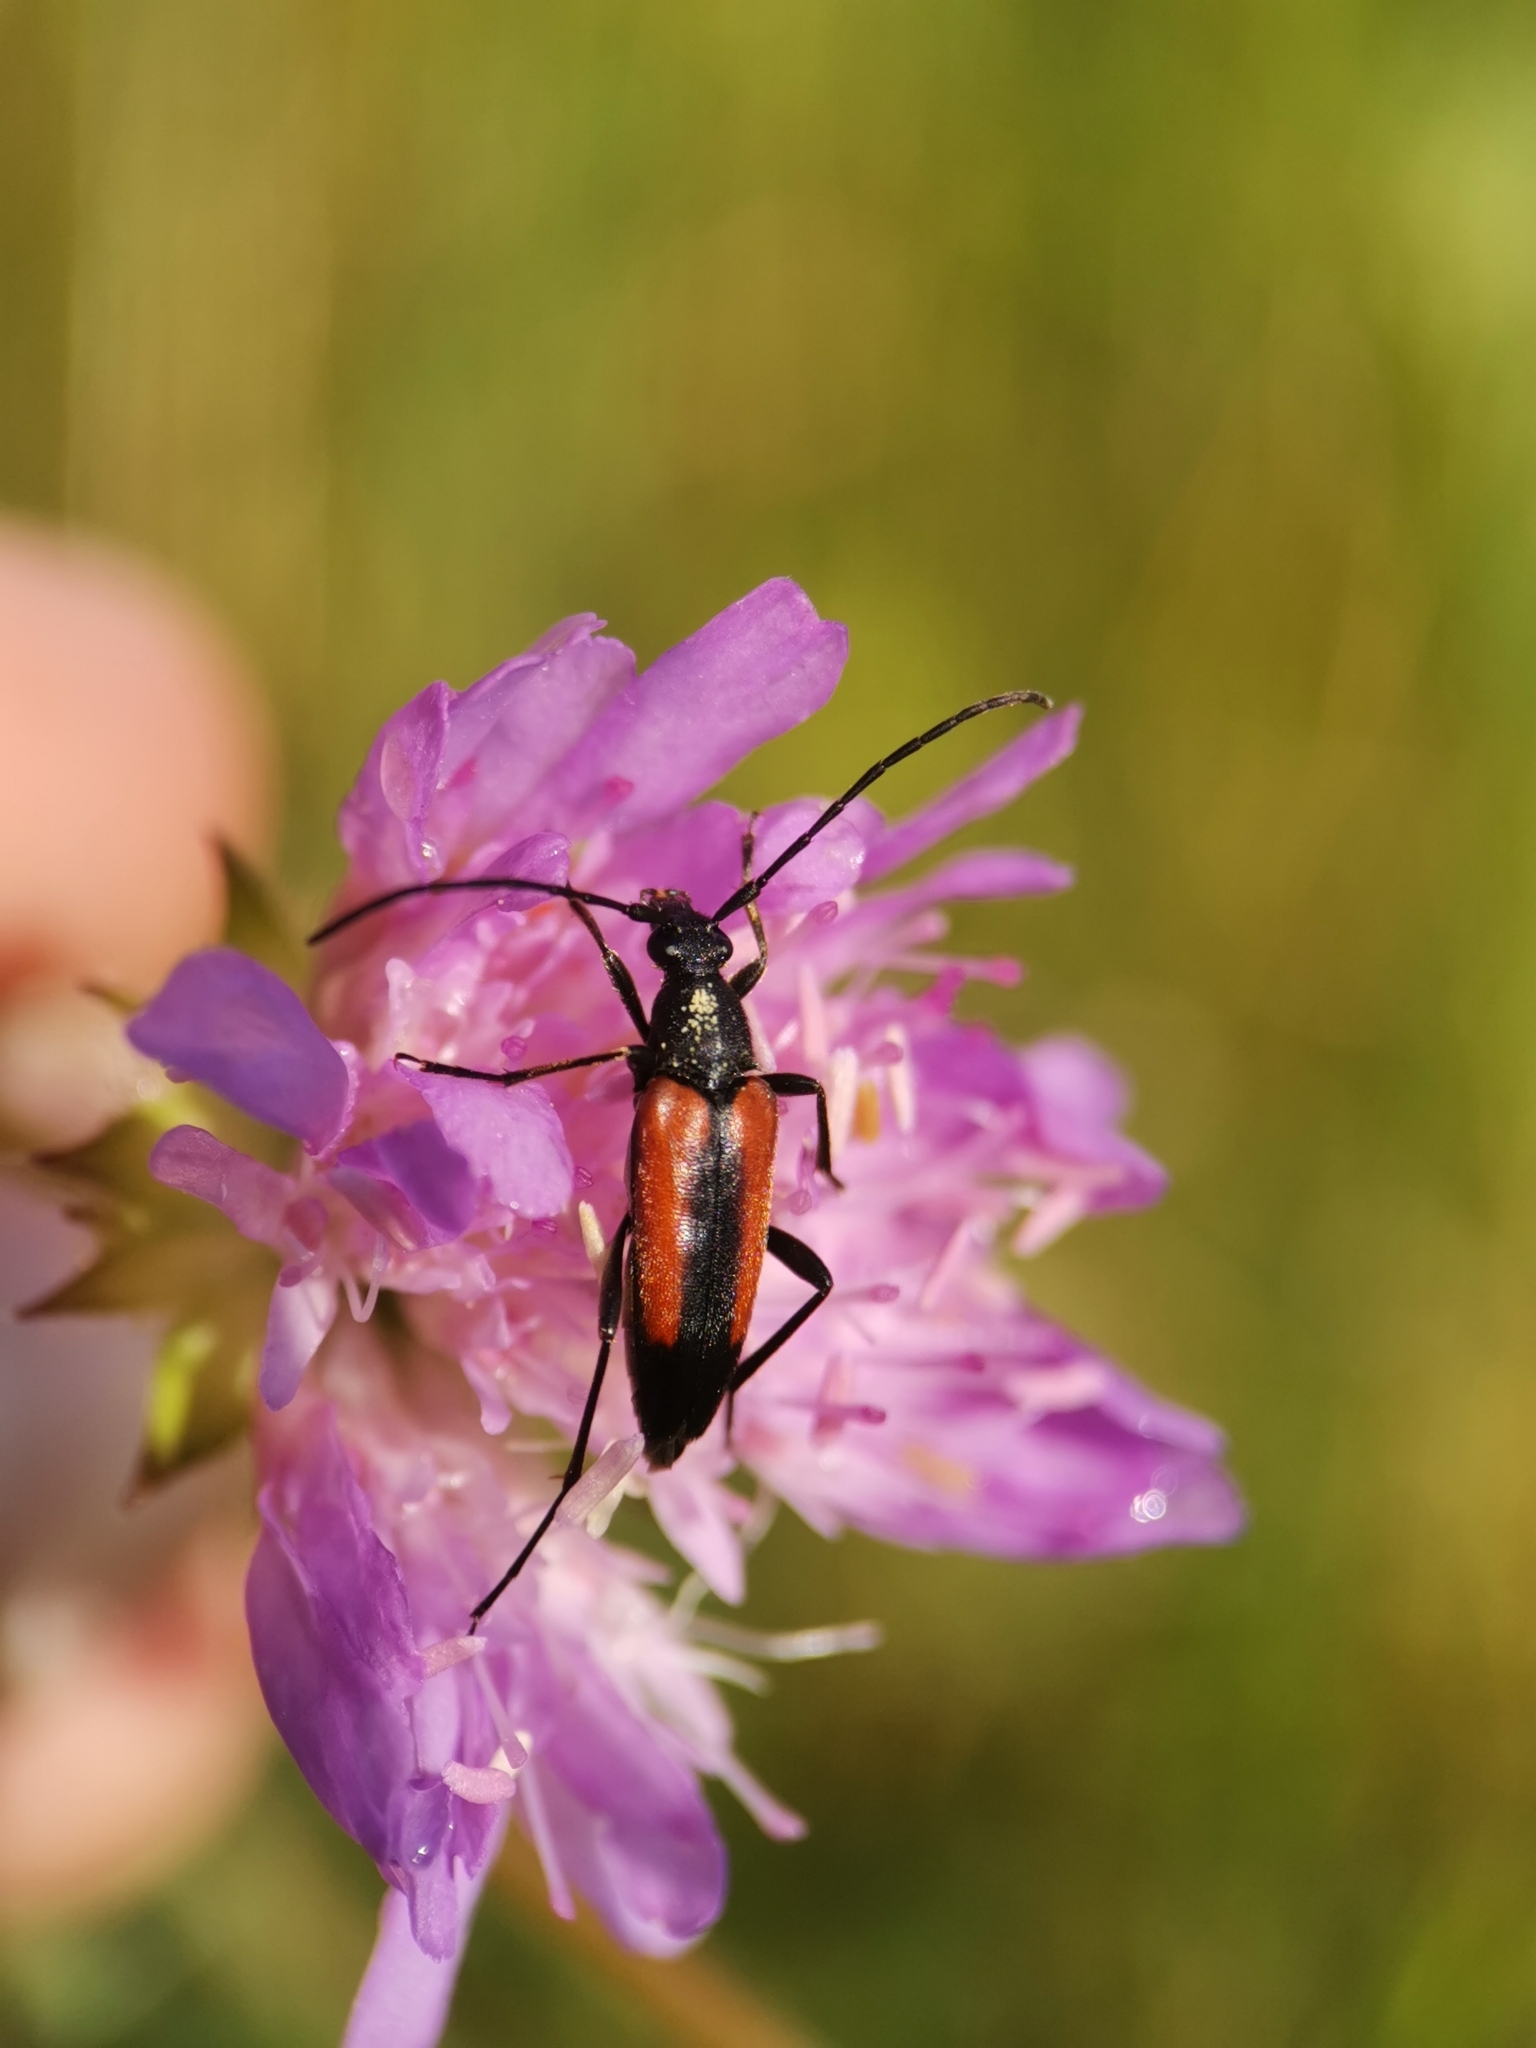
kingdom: Animalia
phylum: Arthropoda
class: Insecta
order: Coleoptera
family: Cerambycidae
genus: Stenurella
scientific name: Stenurella melanura
